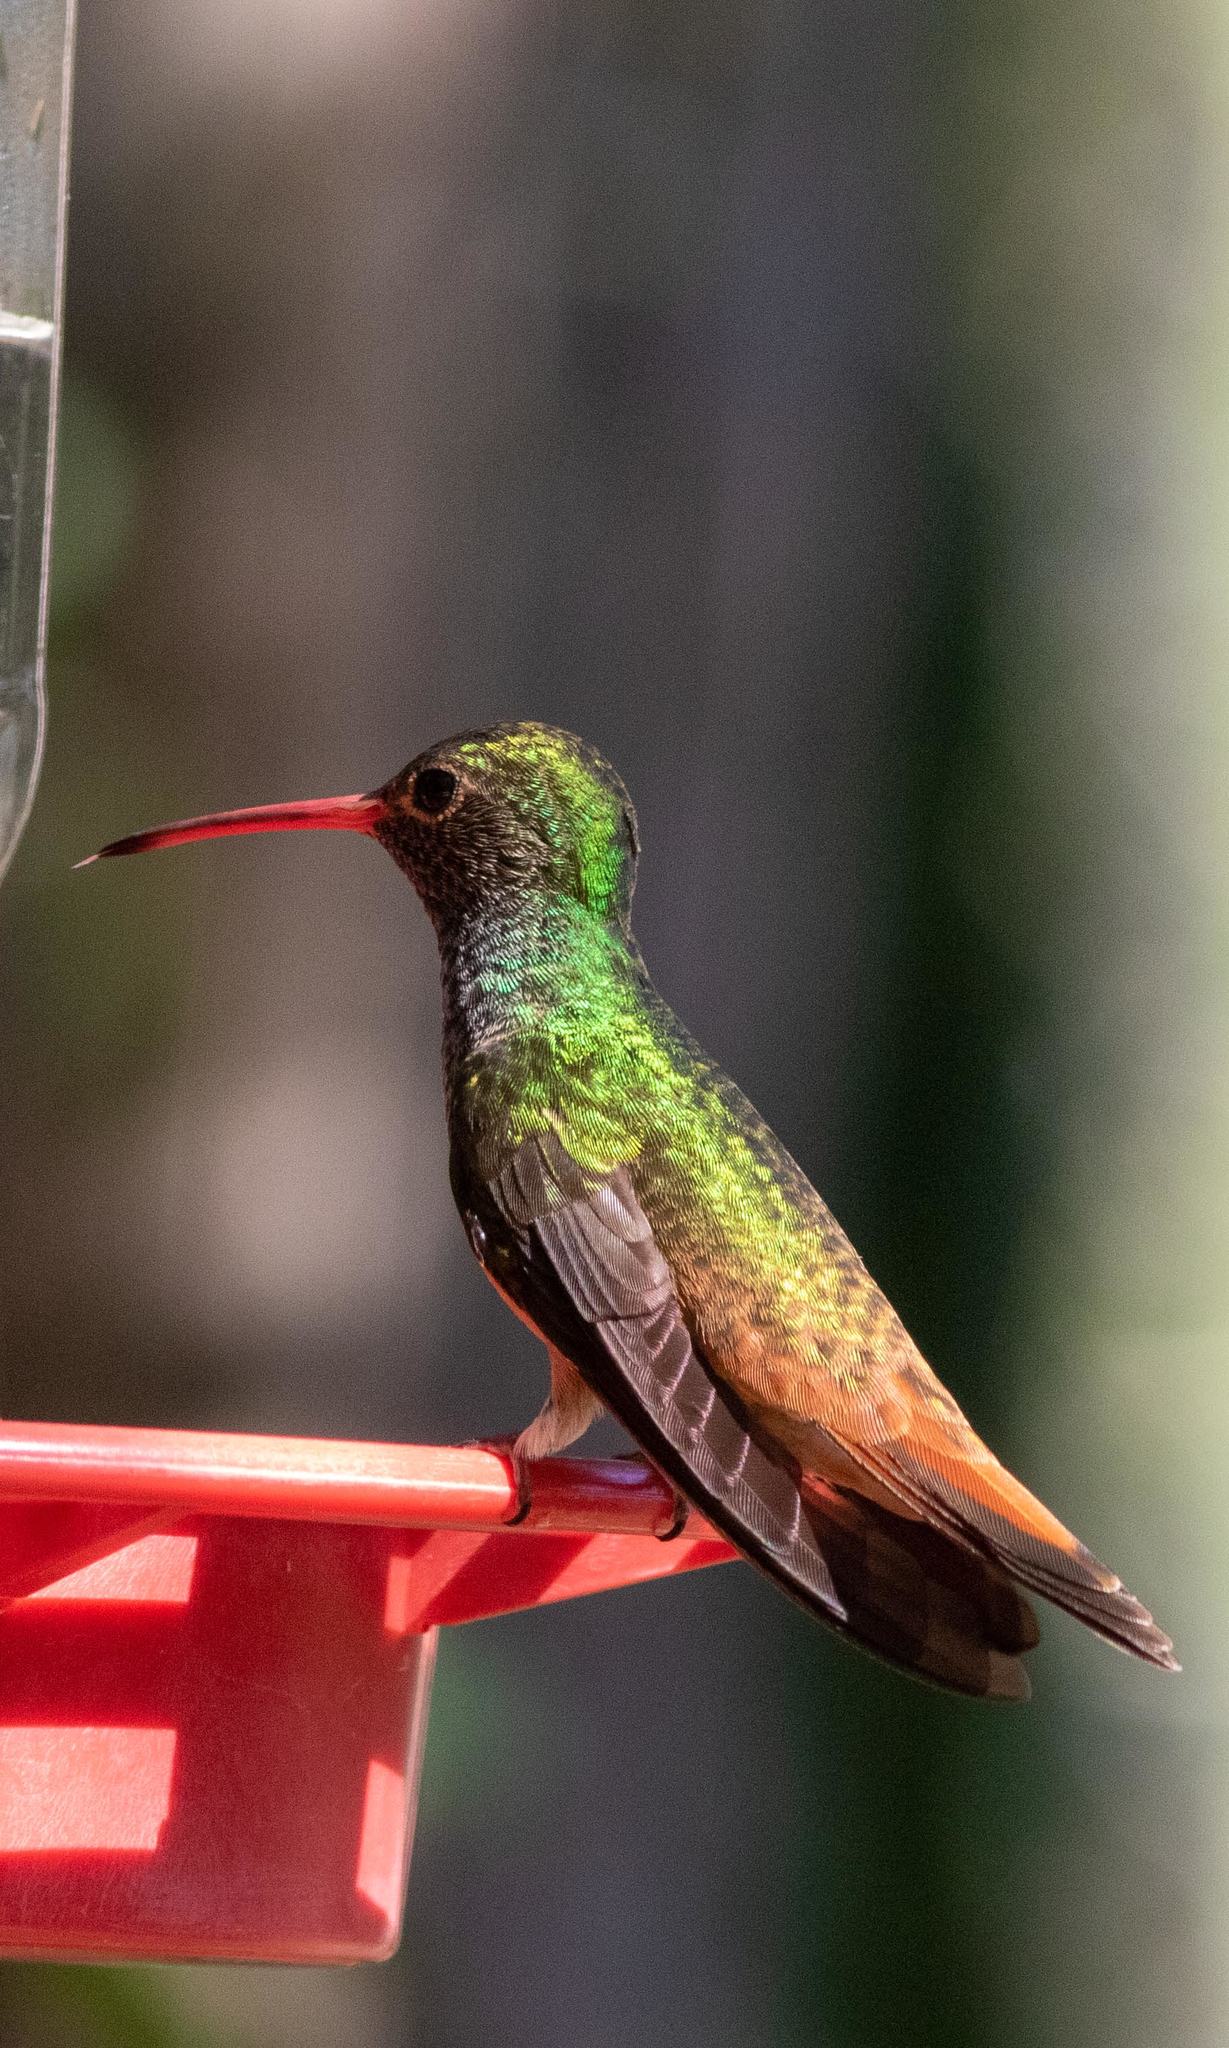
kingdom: Animalia
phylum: Chordata
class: Aves
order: Apodiformes
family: Trochilidae
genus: Amazilia
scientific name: Amazilia yucatanensis
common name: Buff-bellied hummingbird
